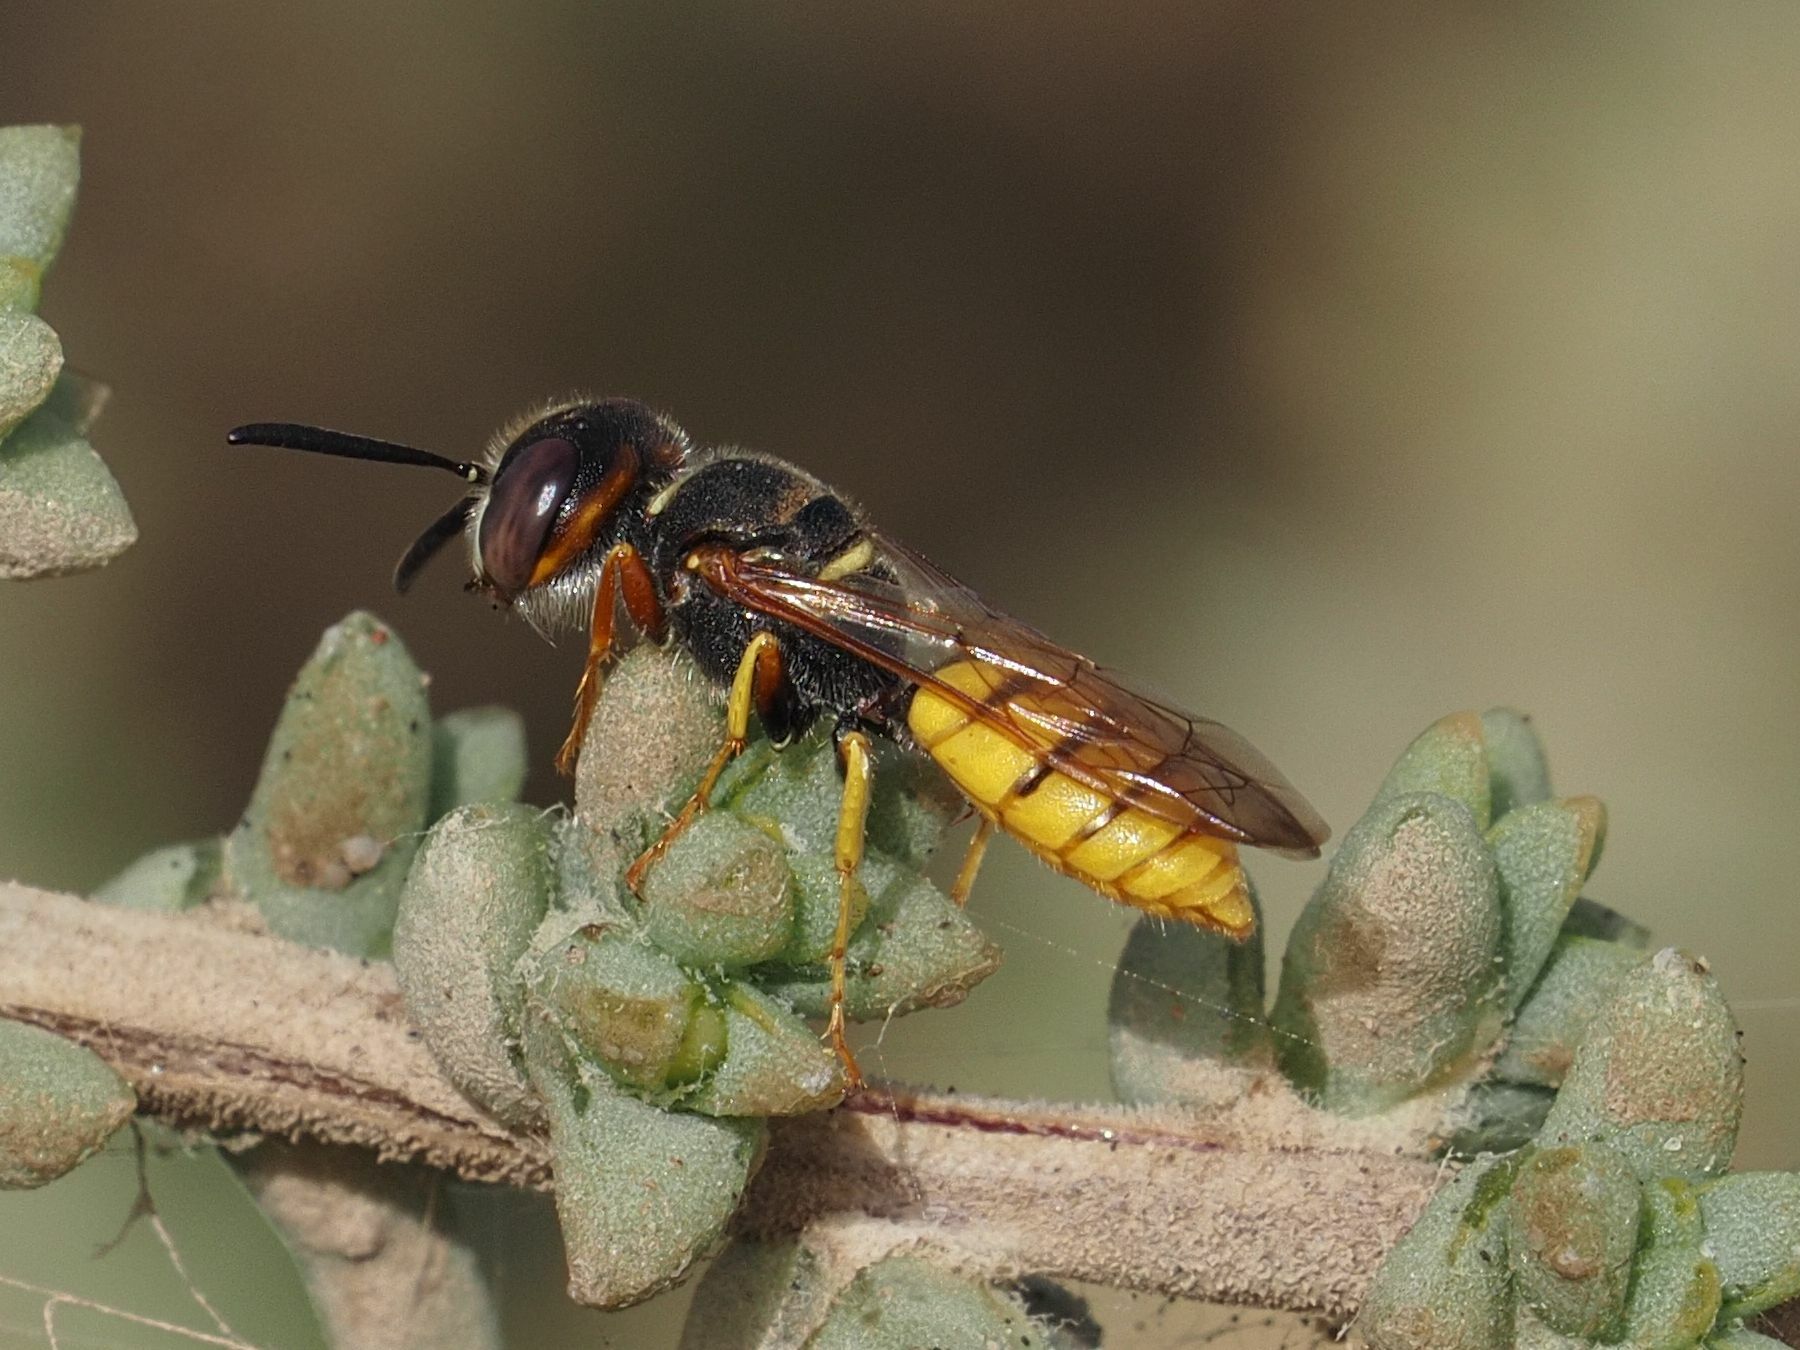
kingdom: Animalia
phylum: Arthropoda
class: Insecta
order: Hymenoptera
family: Crabronidae
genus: Philanthus
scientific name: Philanthus triangulum
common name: Bee wolf
